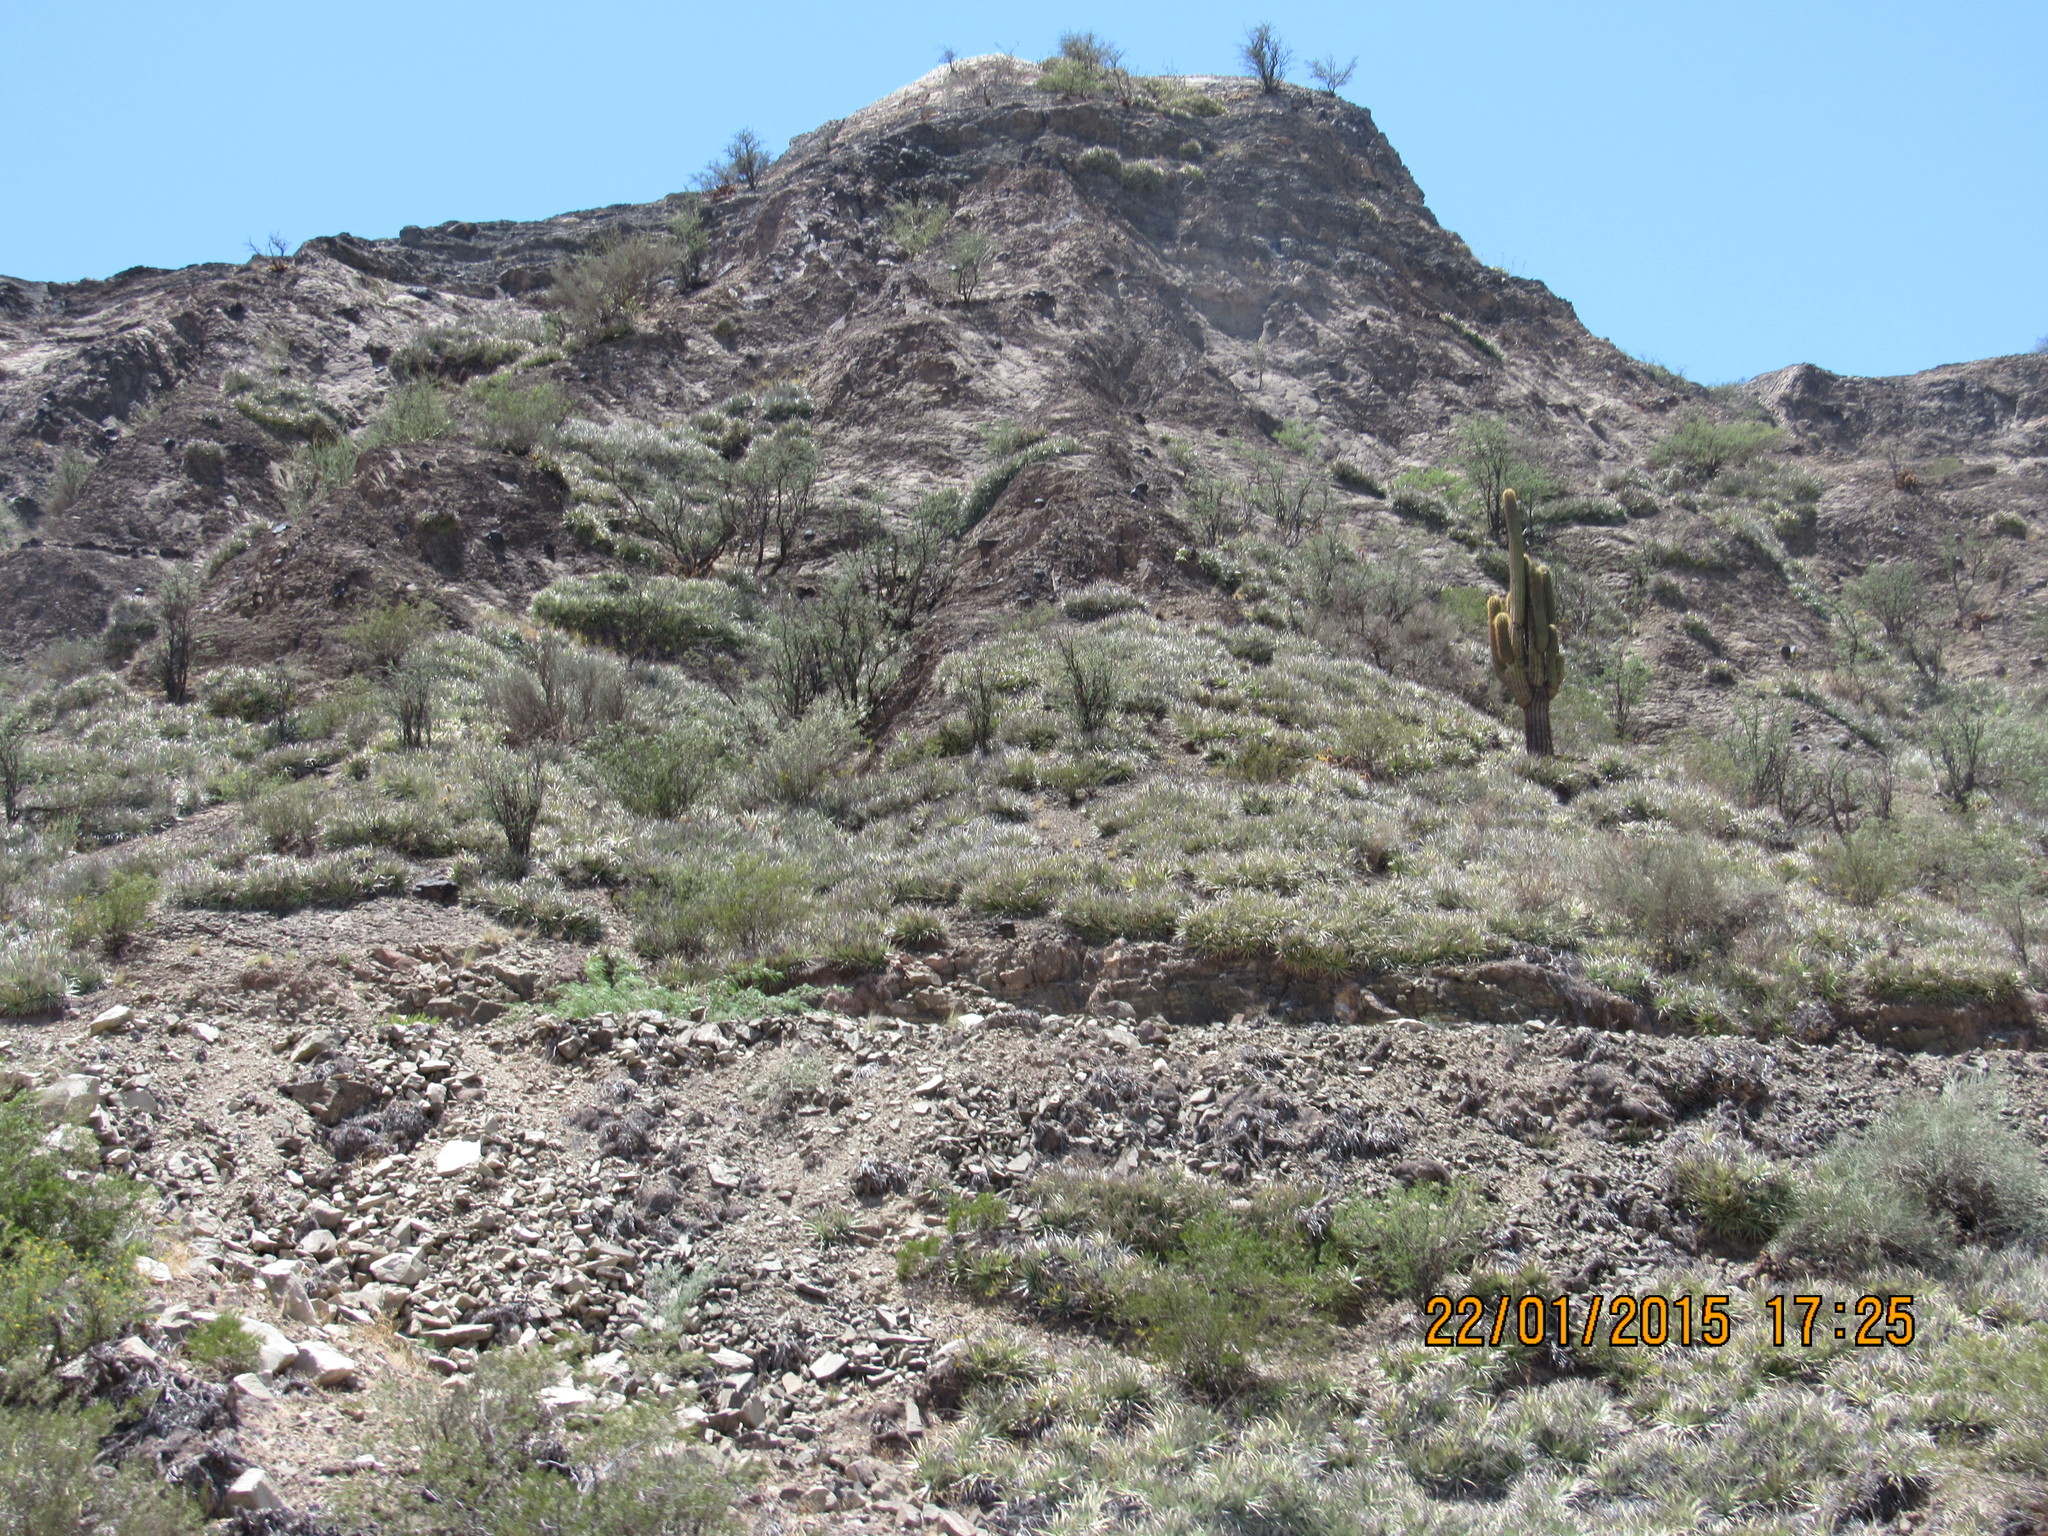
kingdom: Plantae
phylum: Tracheophyta
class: Magnoliopsida
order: Caryophyllales
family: Cactaceae
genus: Leucostele
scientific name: Leucostele terscheckii
